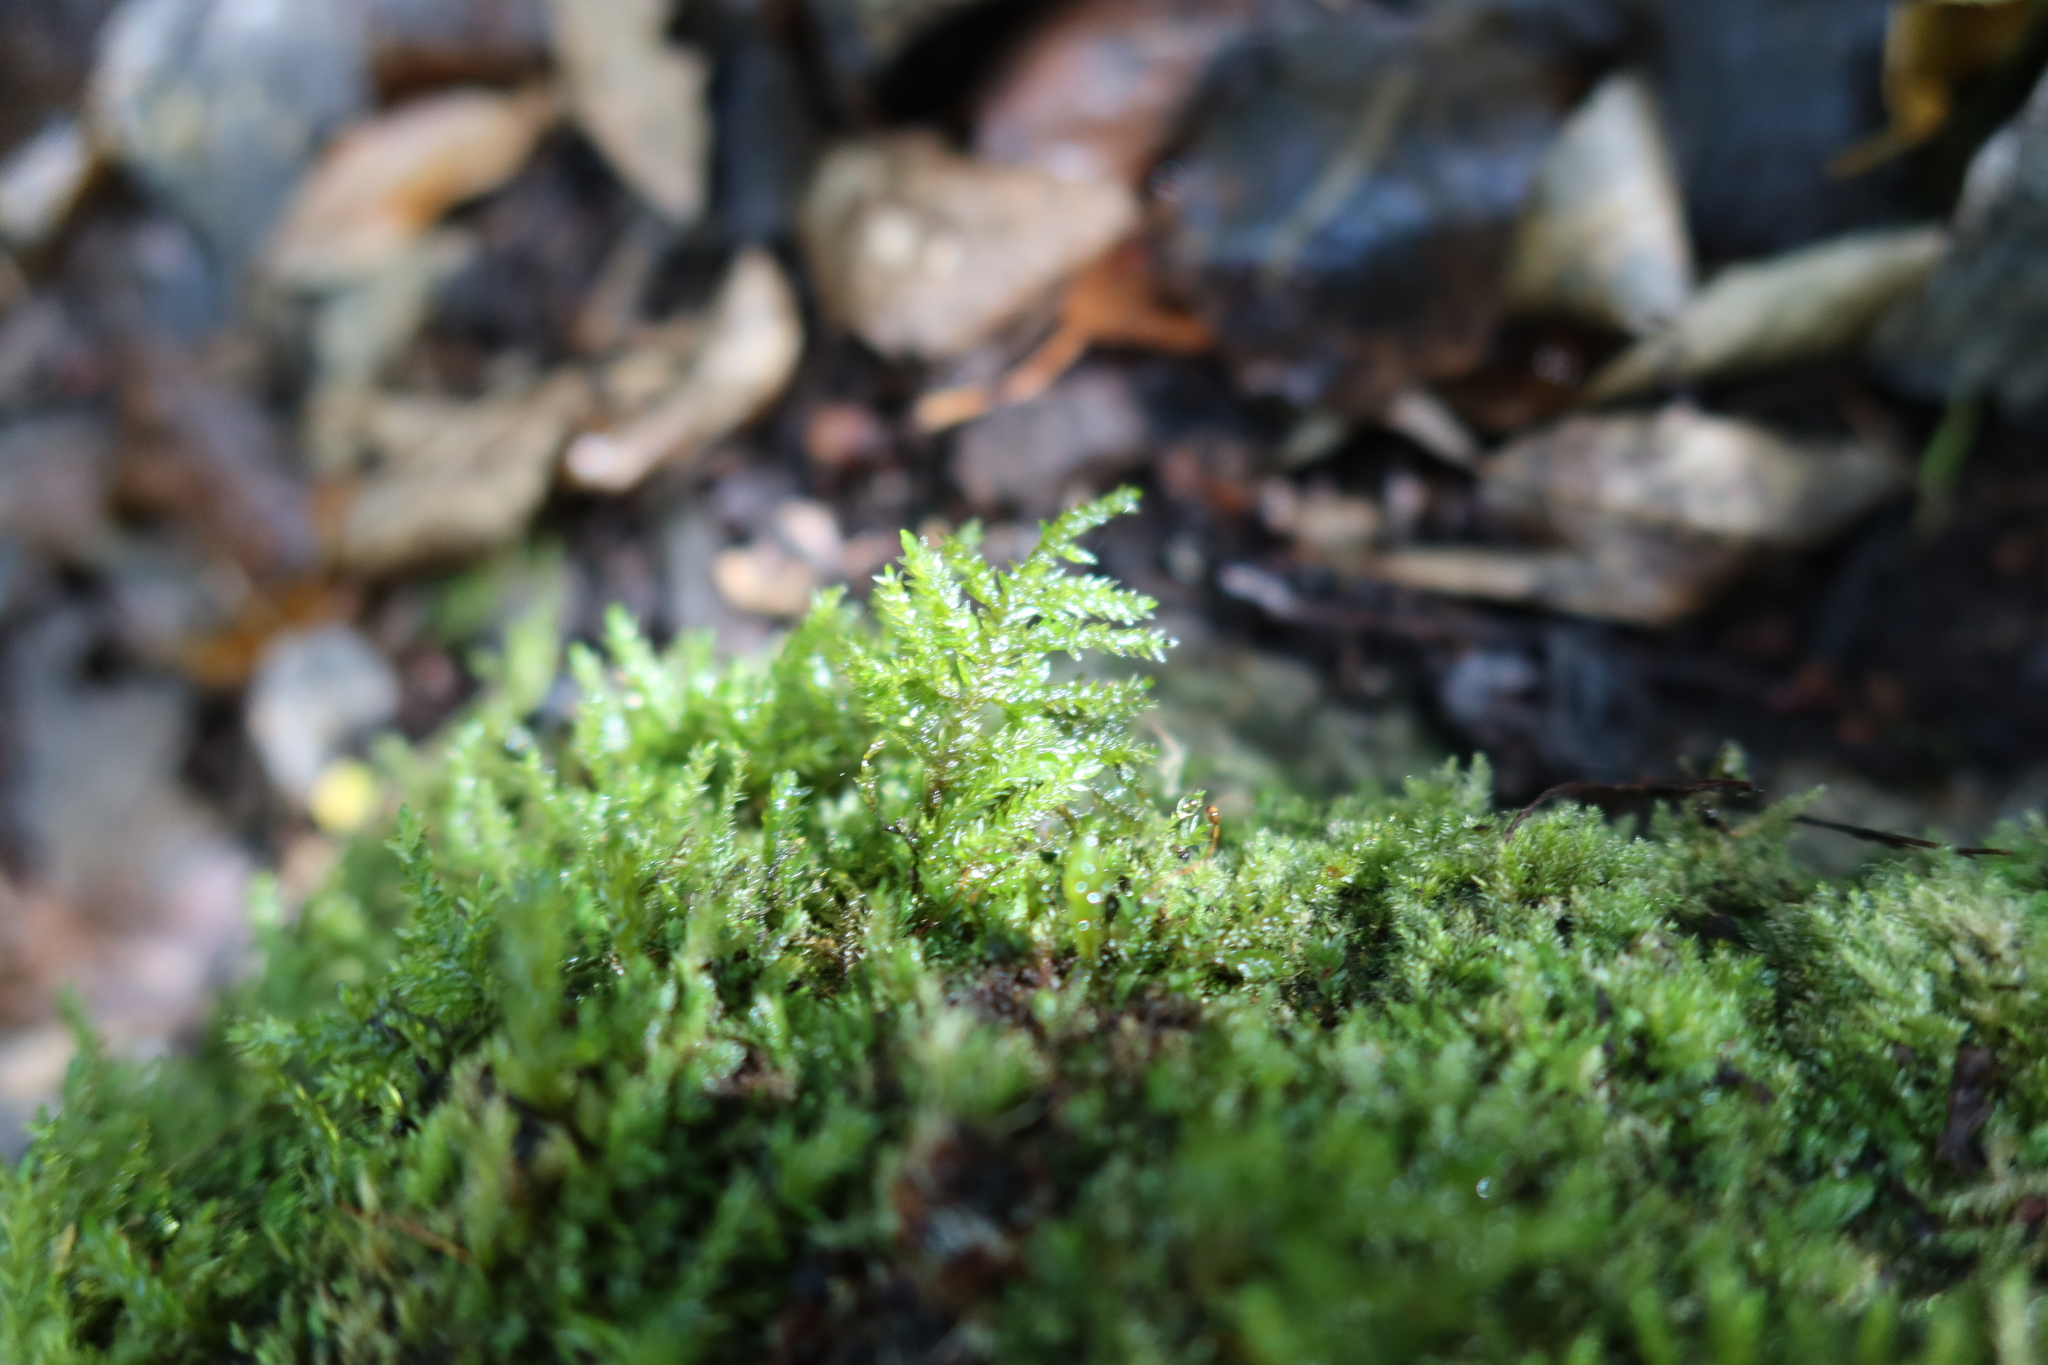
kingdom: Plantae
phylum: Bryophyta
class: Bryopsida
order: Hypnales
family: Neckeraceae
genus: Alleniella
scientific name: Alleniella ehrenbergii
